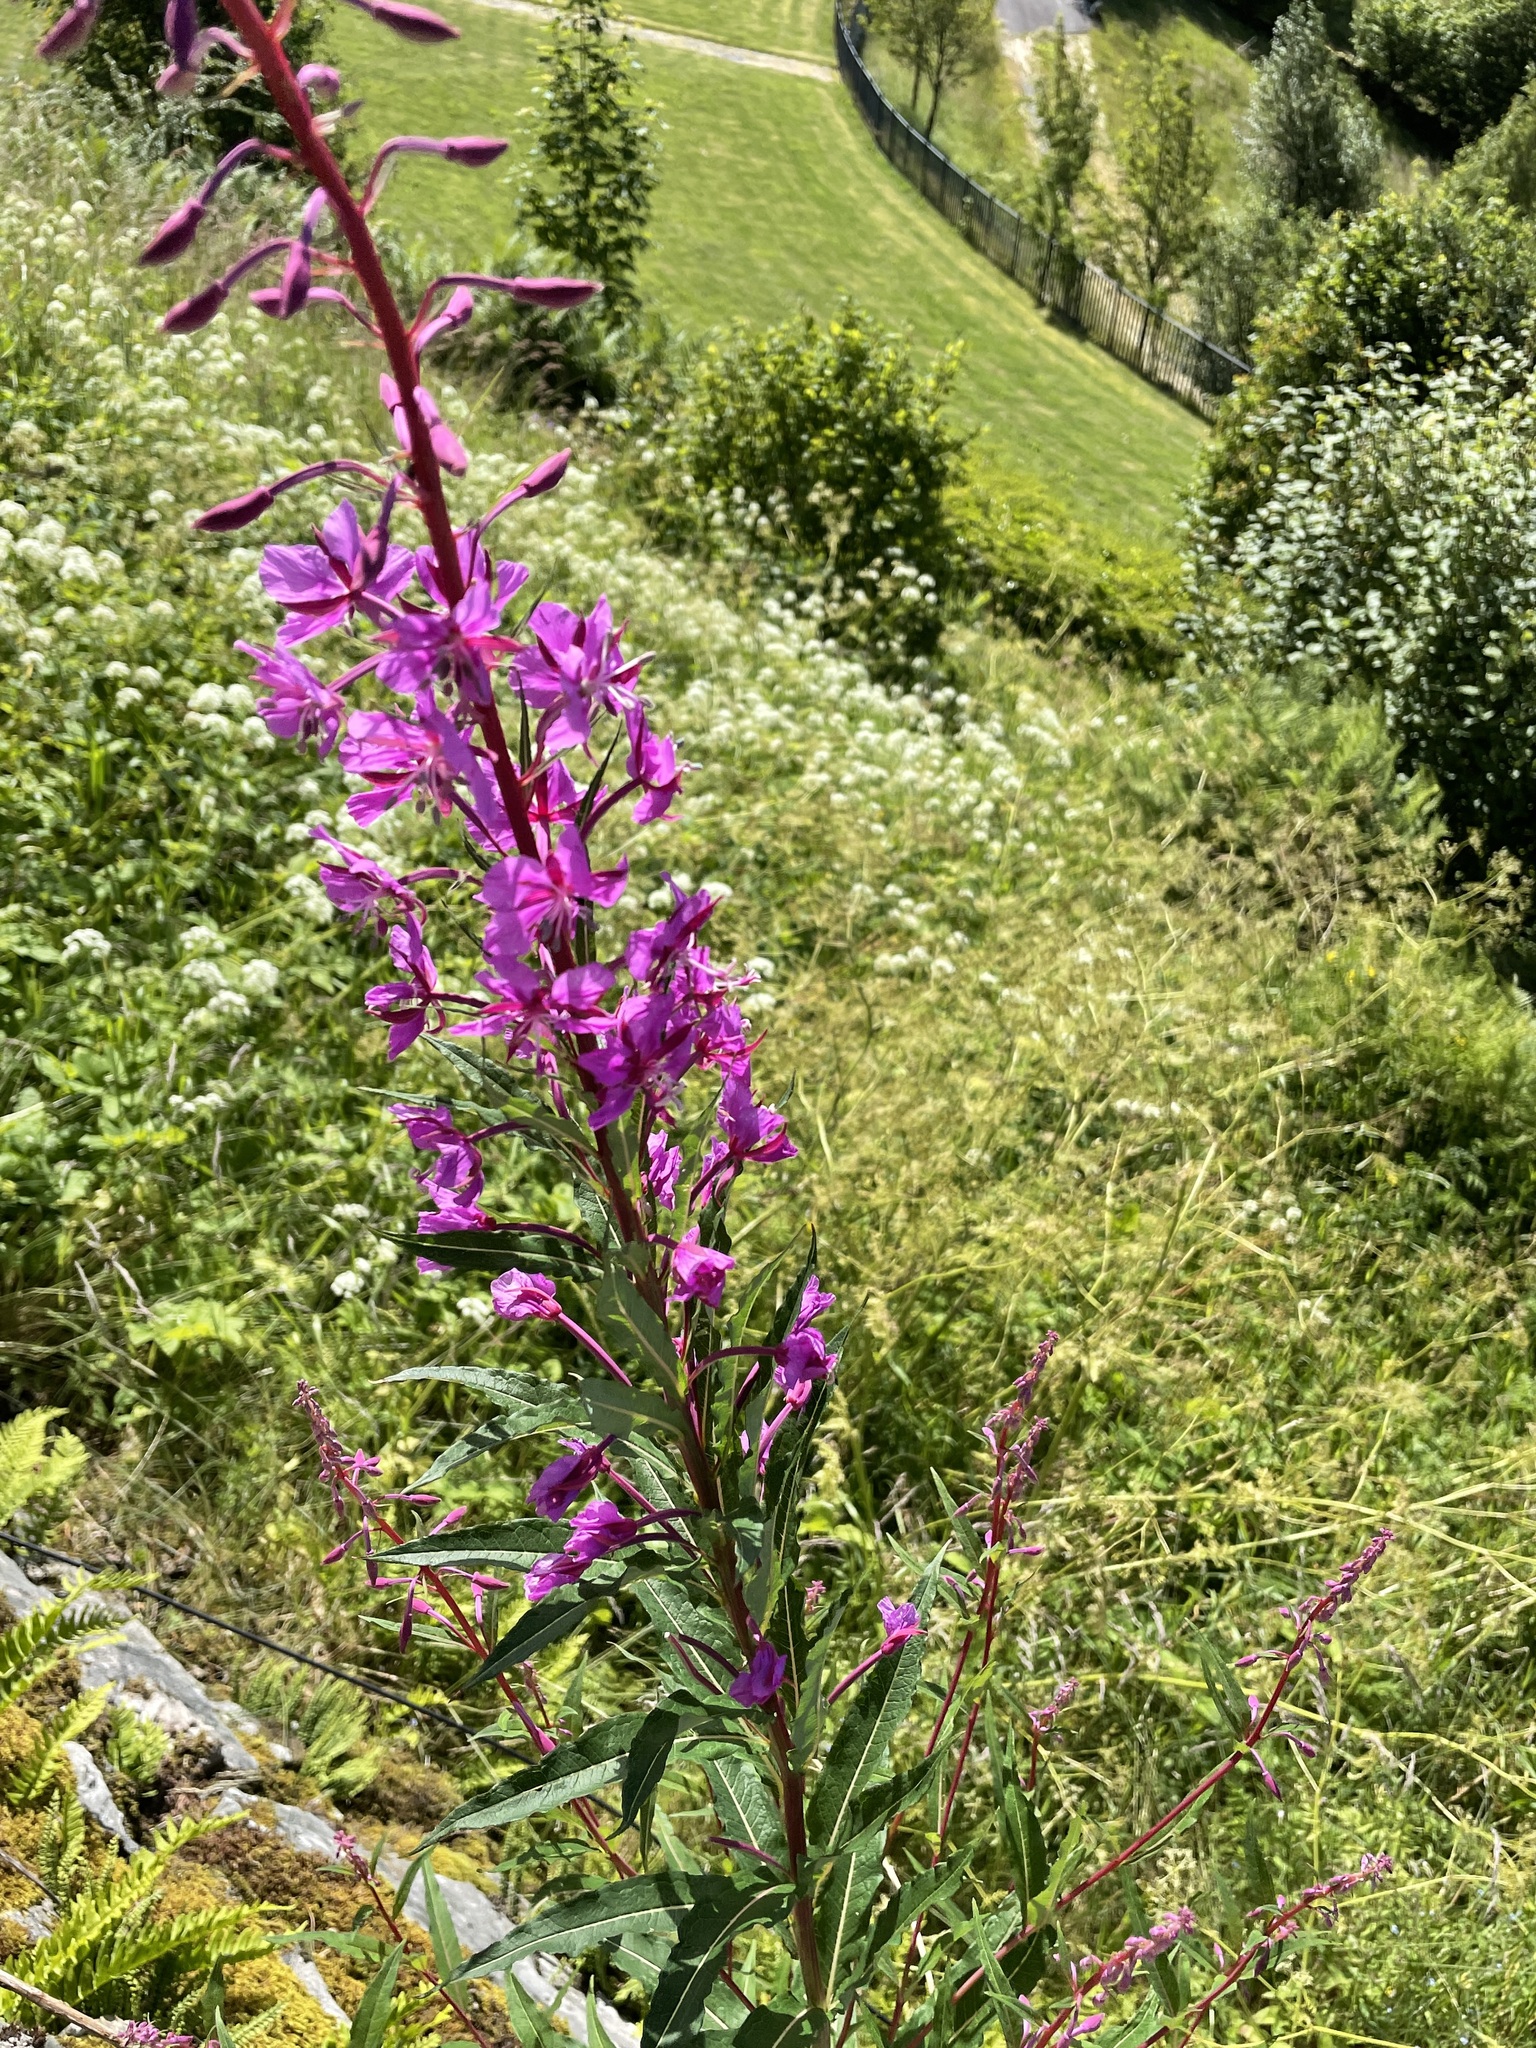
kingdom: Plantae
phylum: Tracheophyta
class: Magnoliopsida
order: Myrtales
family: Onagraceae
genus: Chamaenerion
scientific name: Chamaenerion angustifolium
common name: Fireweed
